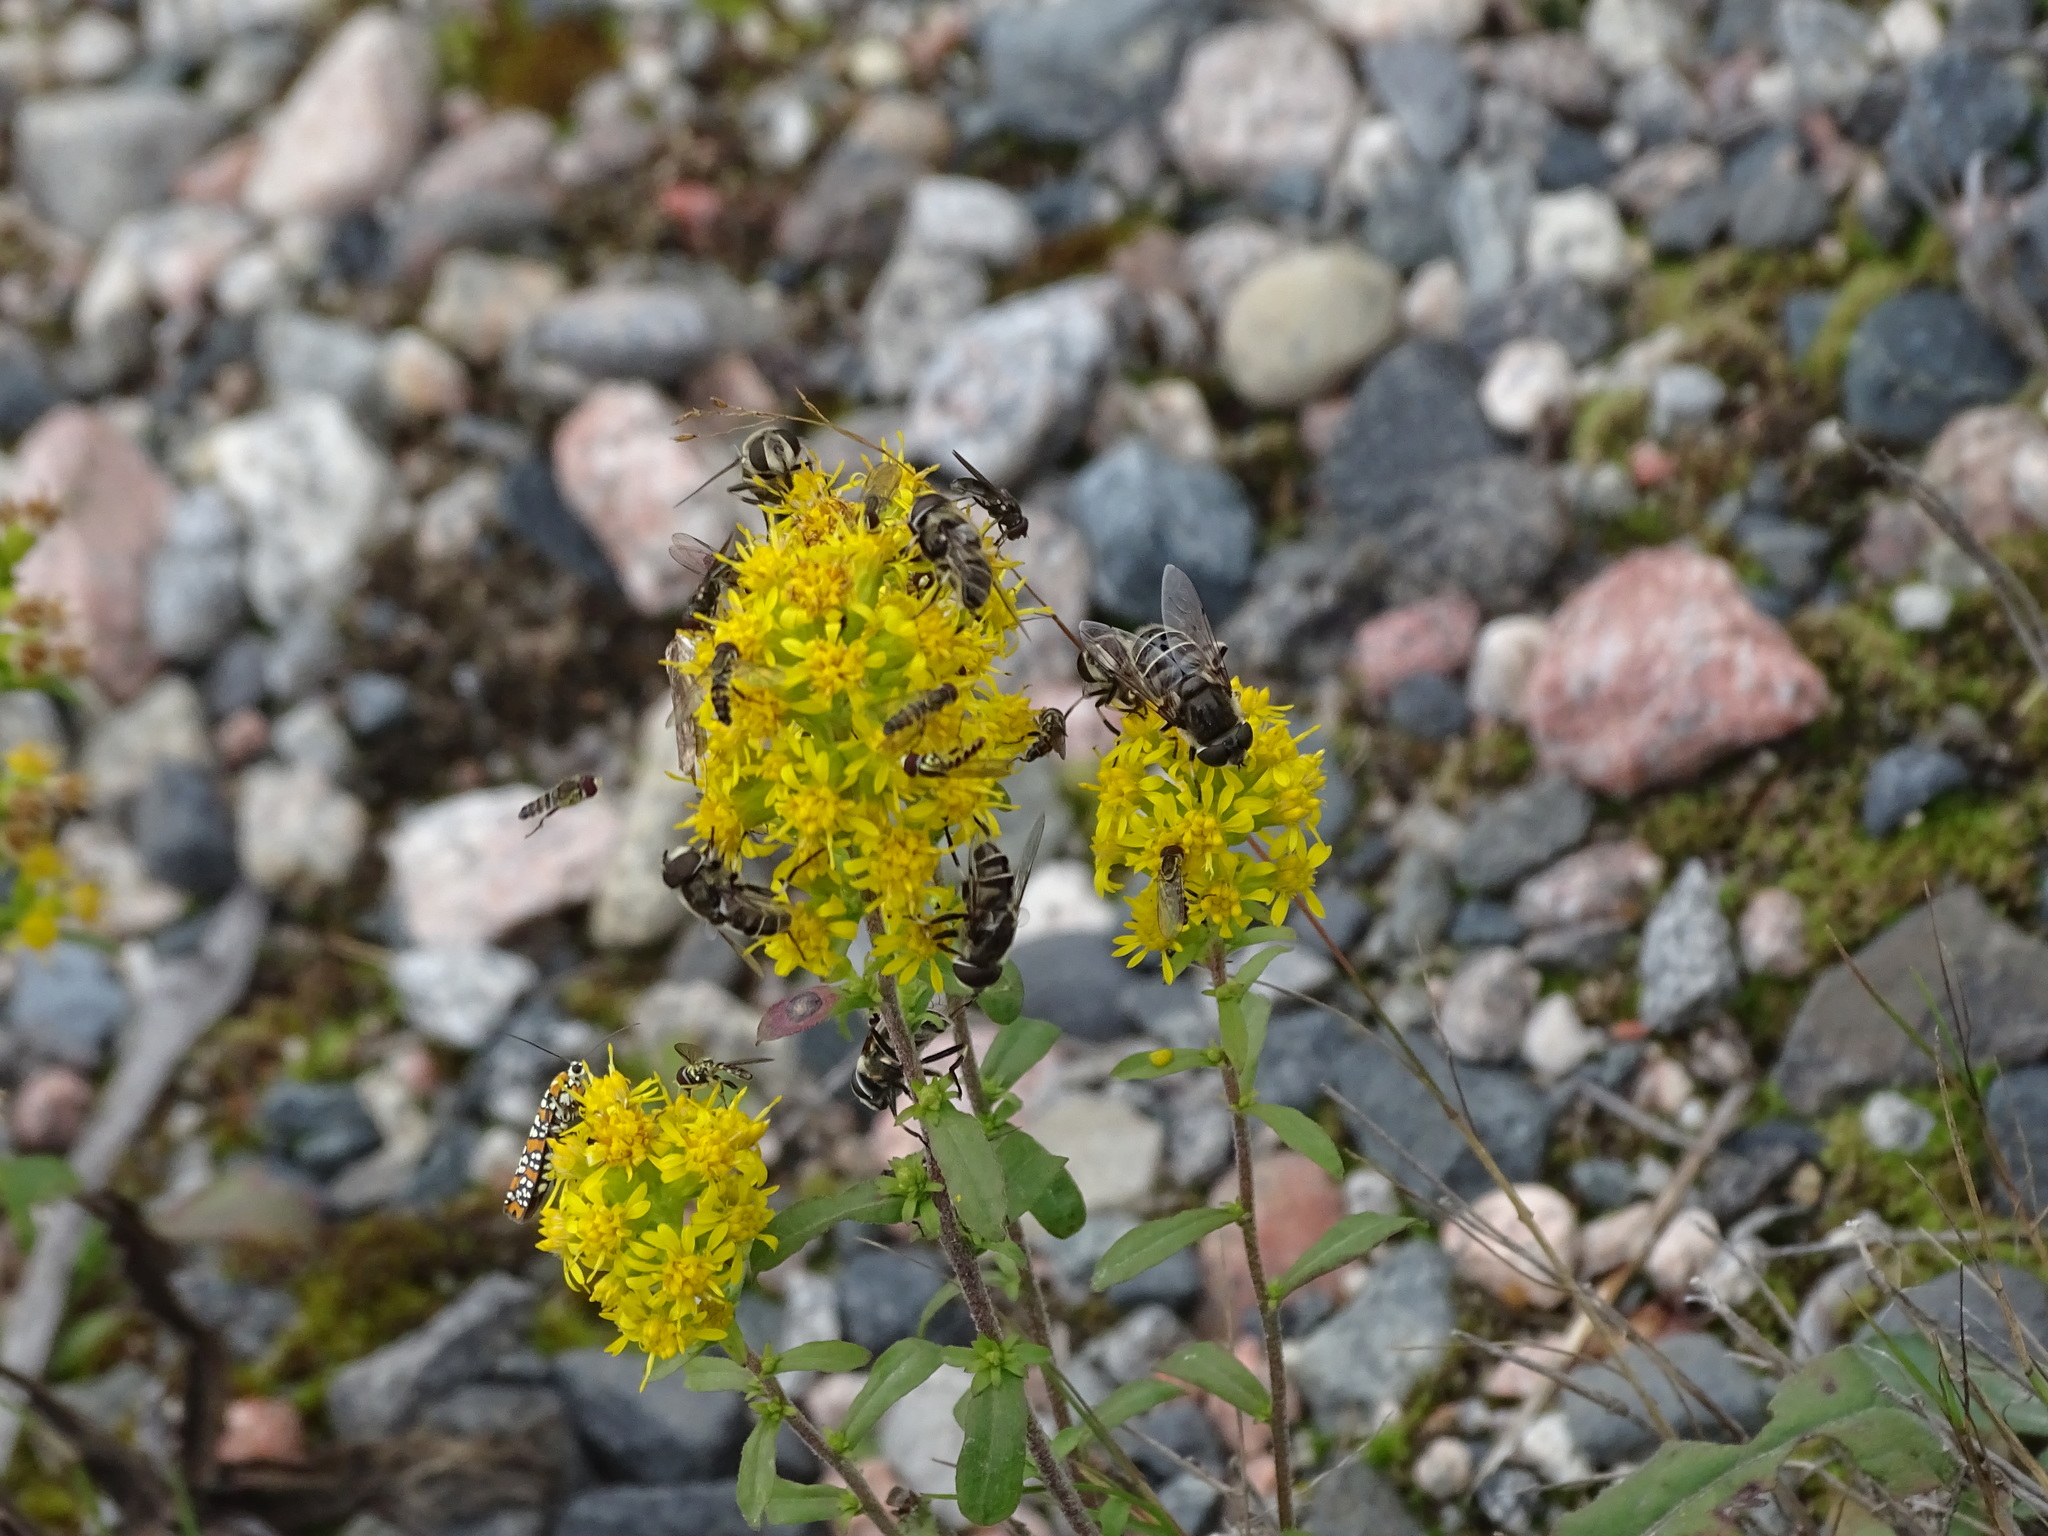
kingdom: Animalia
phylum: Arthropoda
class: Insecta
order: Lepidoptera
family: Attevidae
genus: Atteva
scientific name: Atteva punctella
